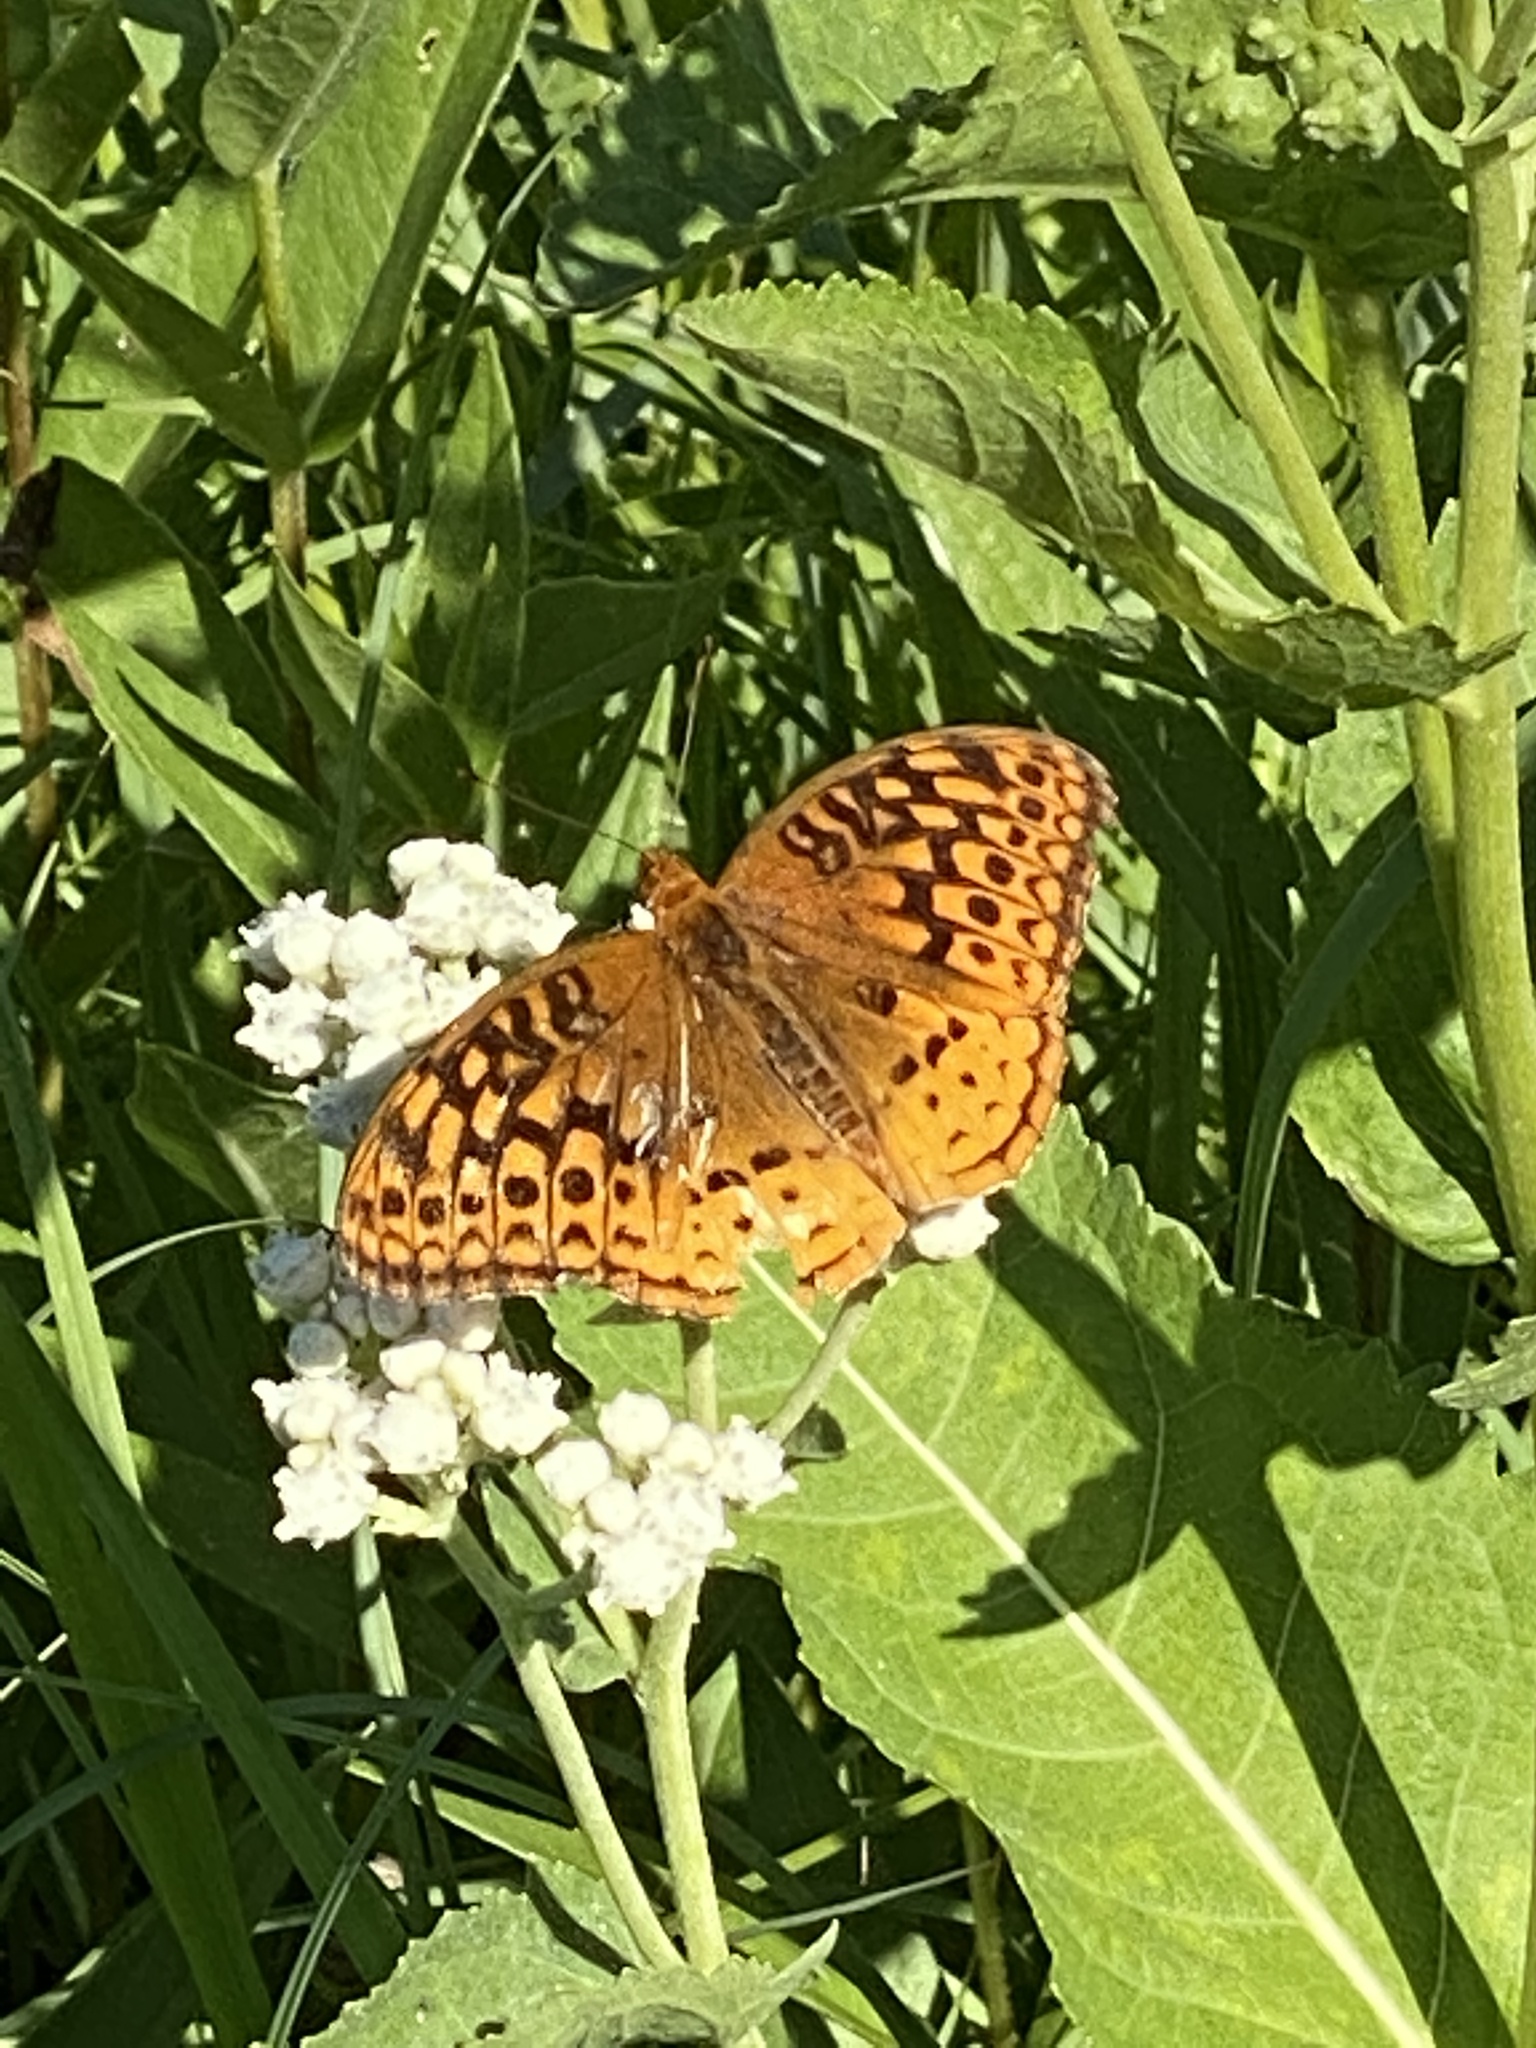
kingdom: Animalia
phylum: Arthropoda
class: Insecta
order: Lepidoptera
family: Nymphalidae
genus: Speyeria
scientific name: Speyeria cybele
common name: Great spangled fritillary
